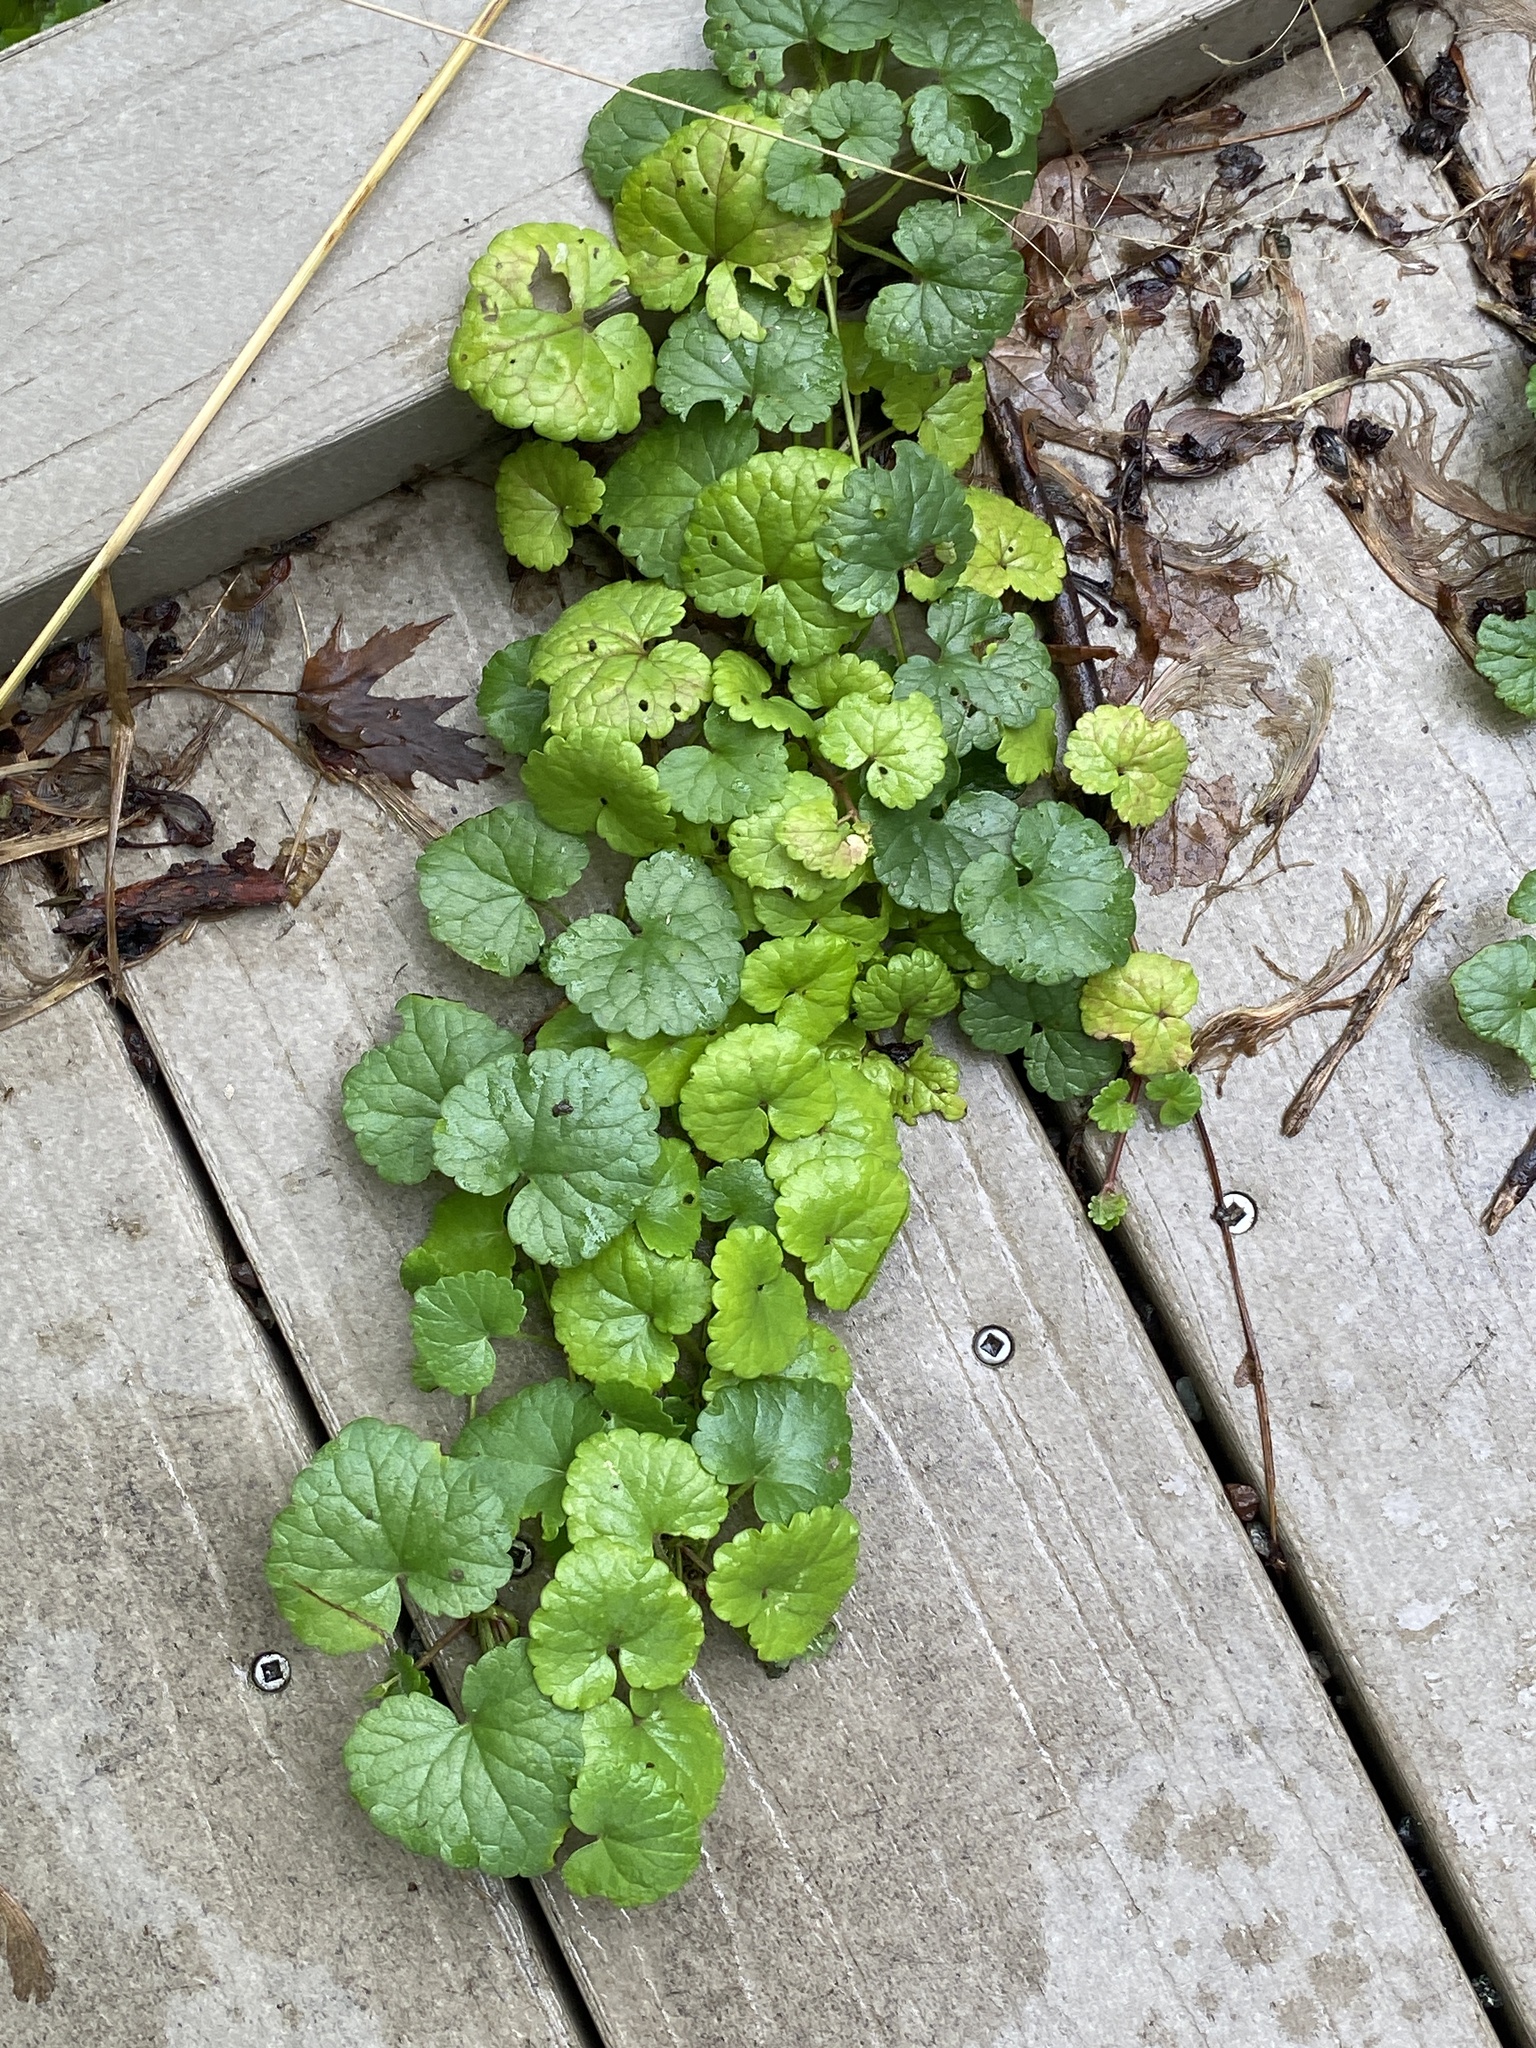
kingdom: Plantae
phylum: Tracheophyta
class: Magnoliopsida
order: Lamiales
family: Lamiaceae
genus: Glechoma
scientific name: Glechoma hederacea
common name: Ground ivy
